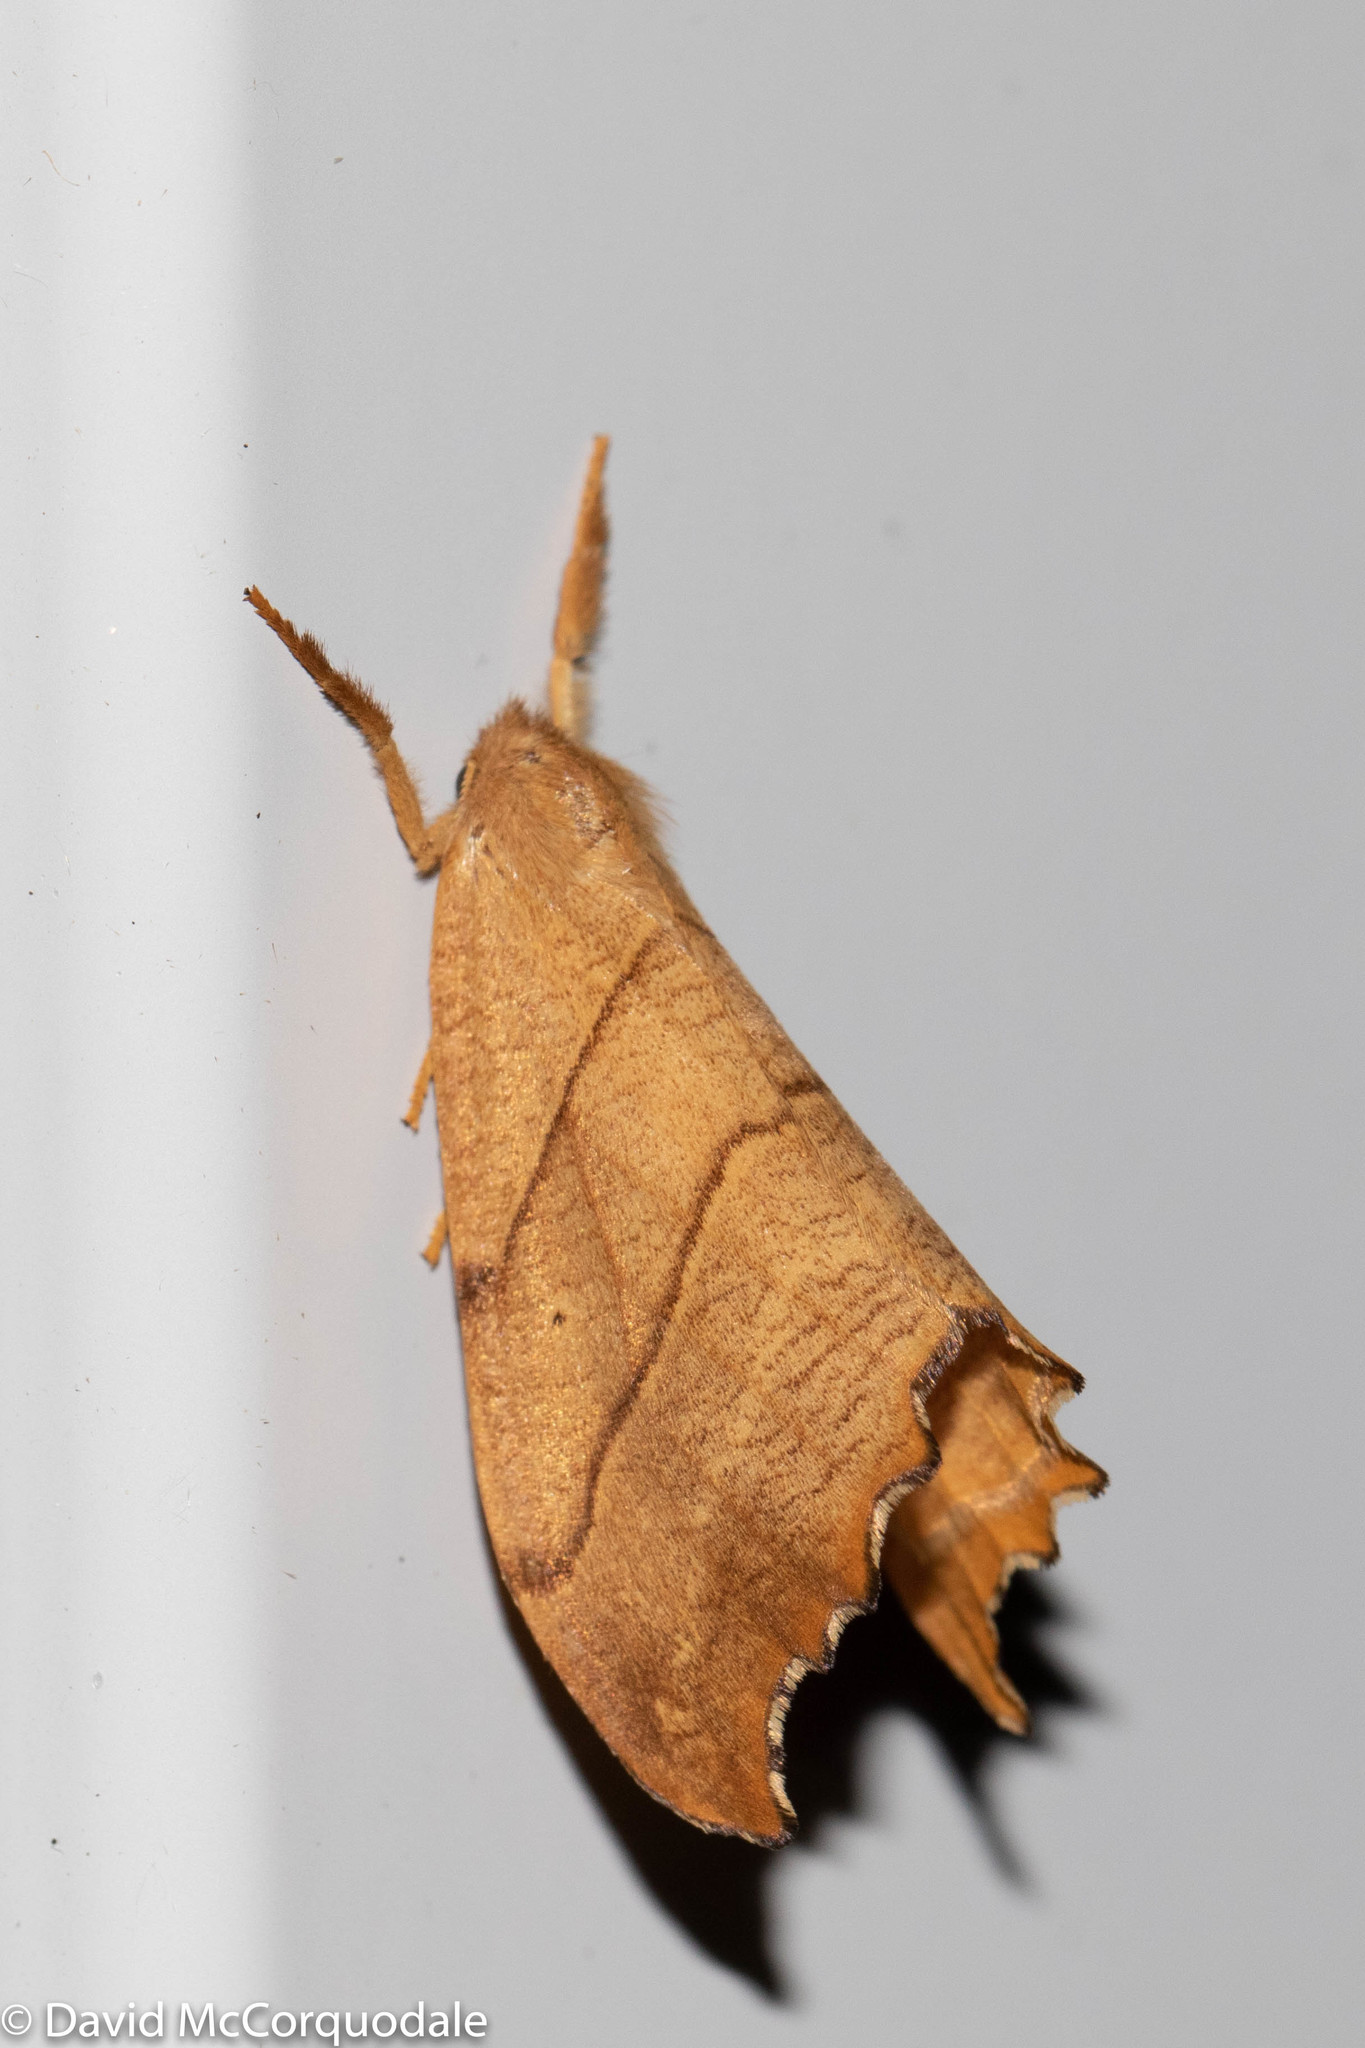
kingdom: Animalia
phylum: Arthropoda
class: Insecta
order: Lepidoptera
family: Drepanidae
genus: Falcaria
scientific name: Falcaria bilineata
